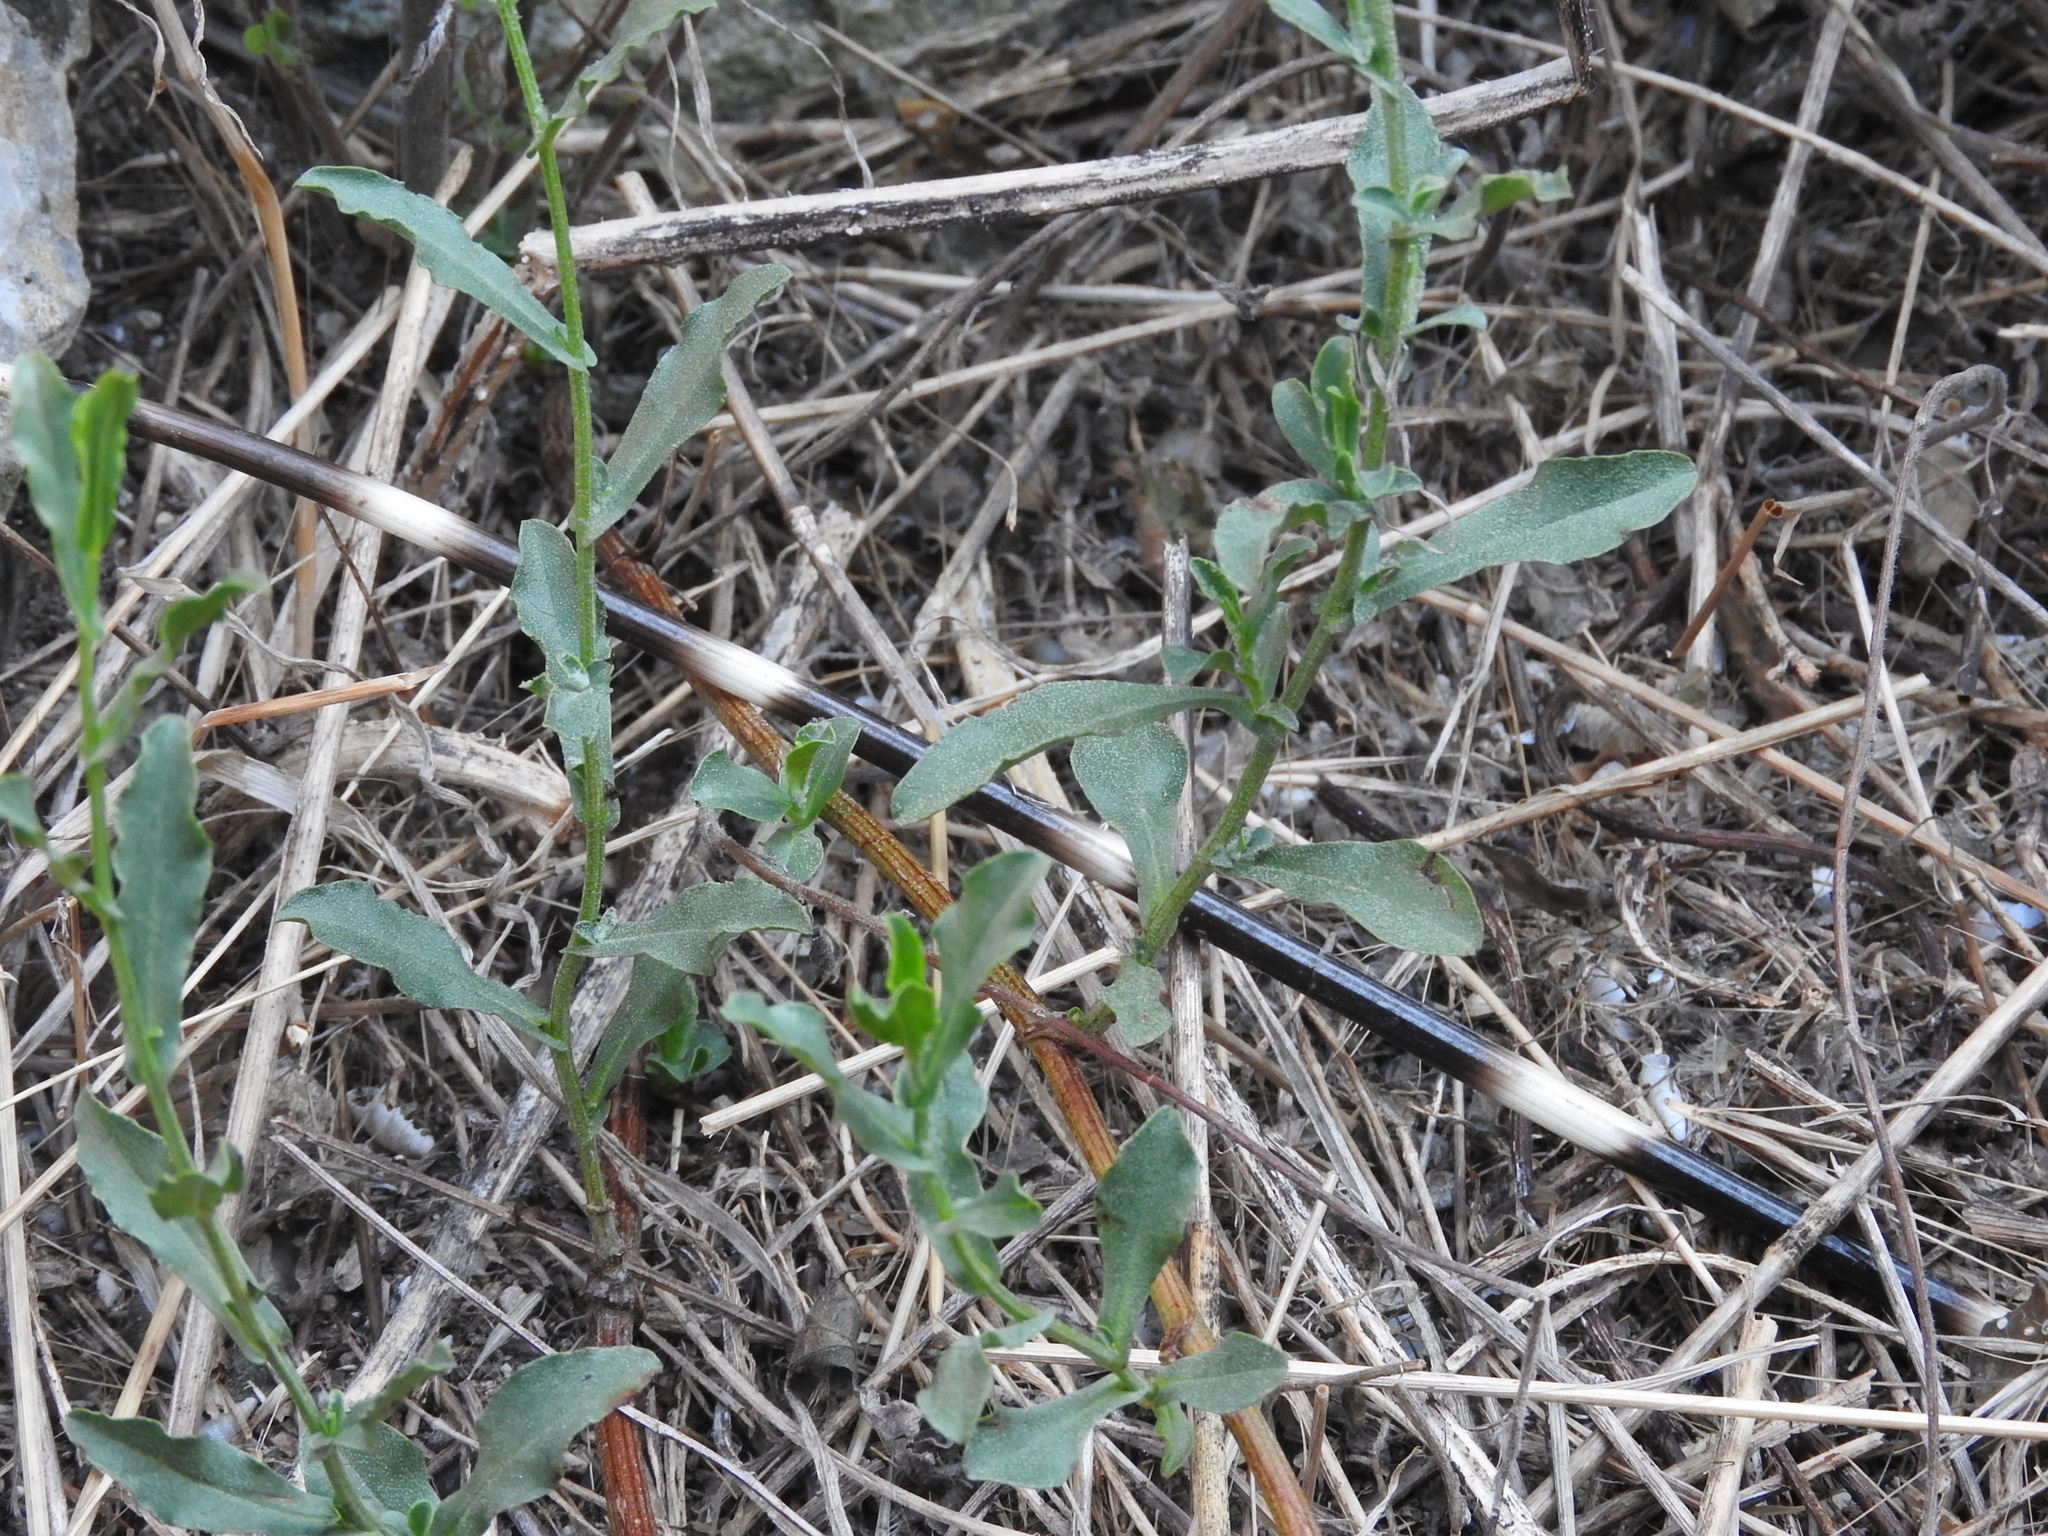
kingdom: Animalia
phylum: Chordata
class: Mammalia
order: Rodentia
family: Hystricidae
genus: Hystrix
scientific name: Hystrix cristata
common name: Crested porcupine
